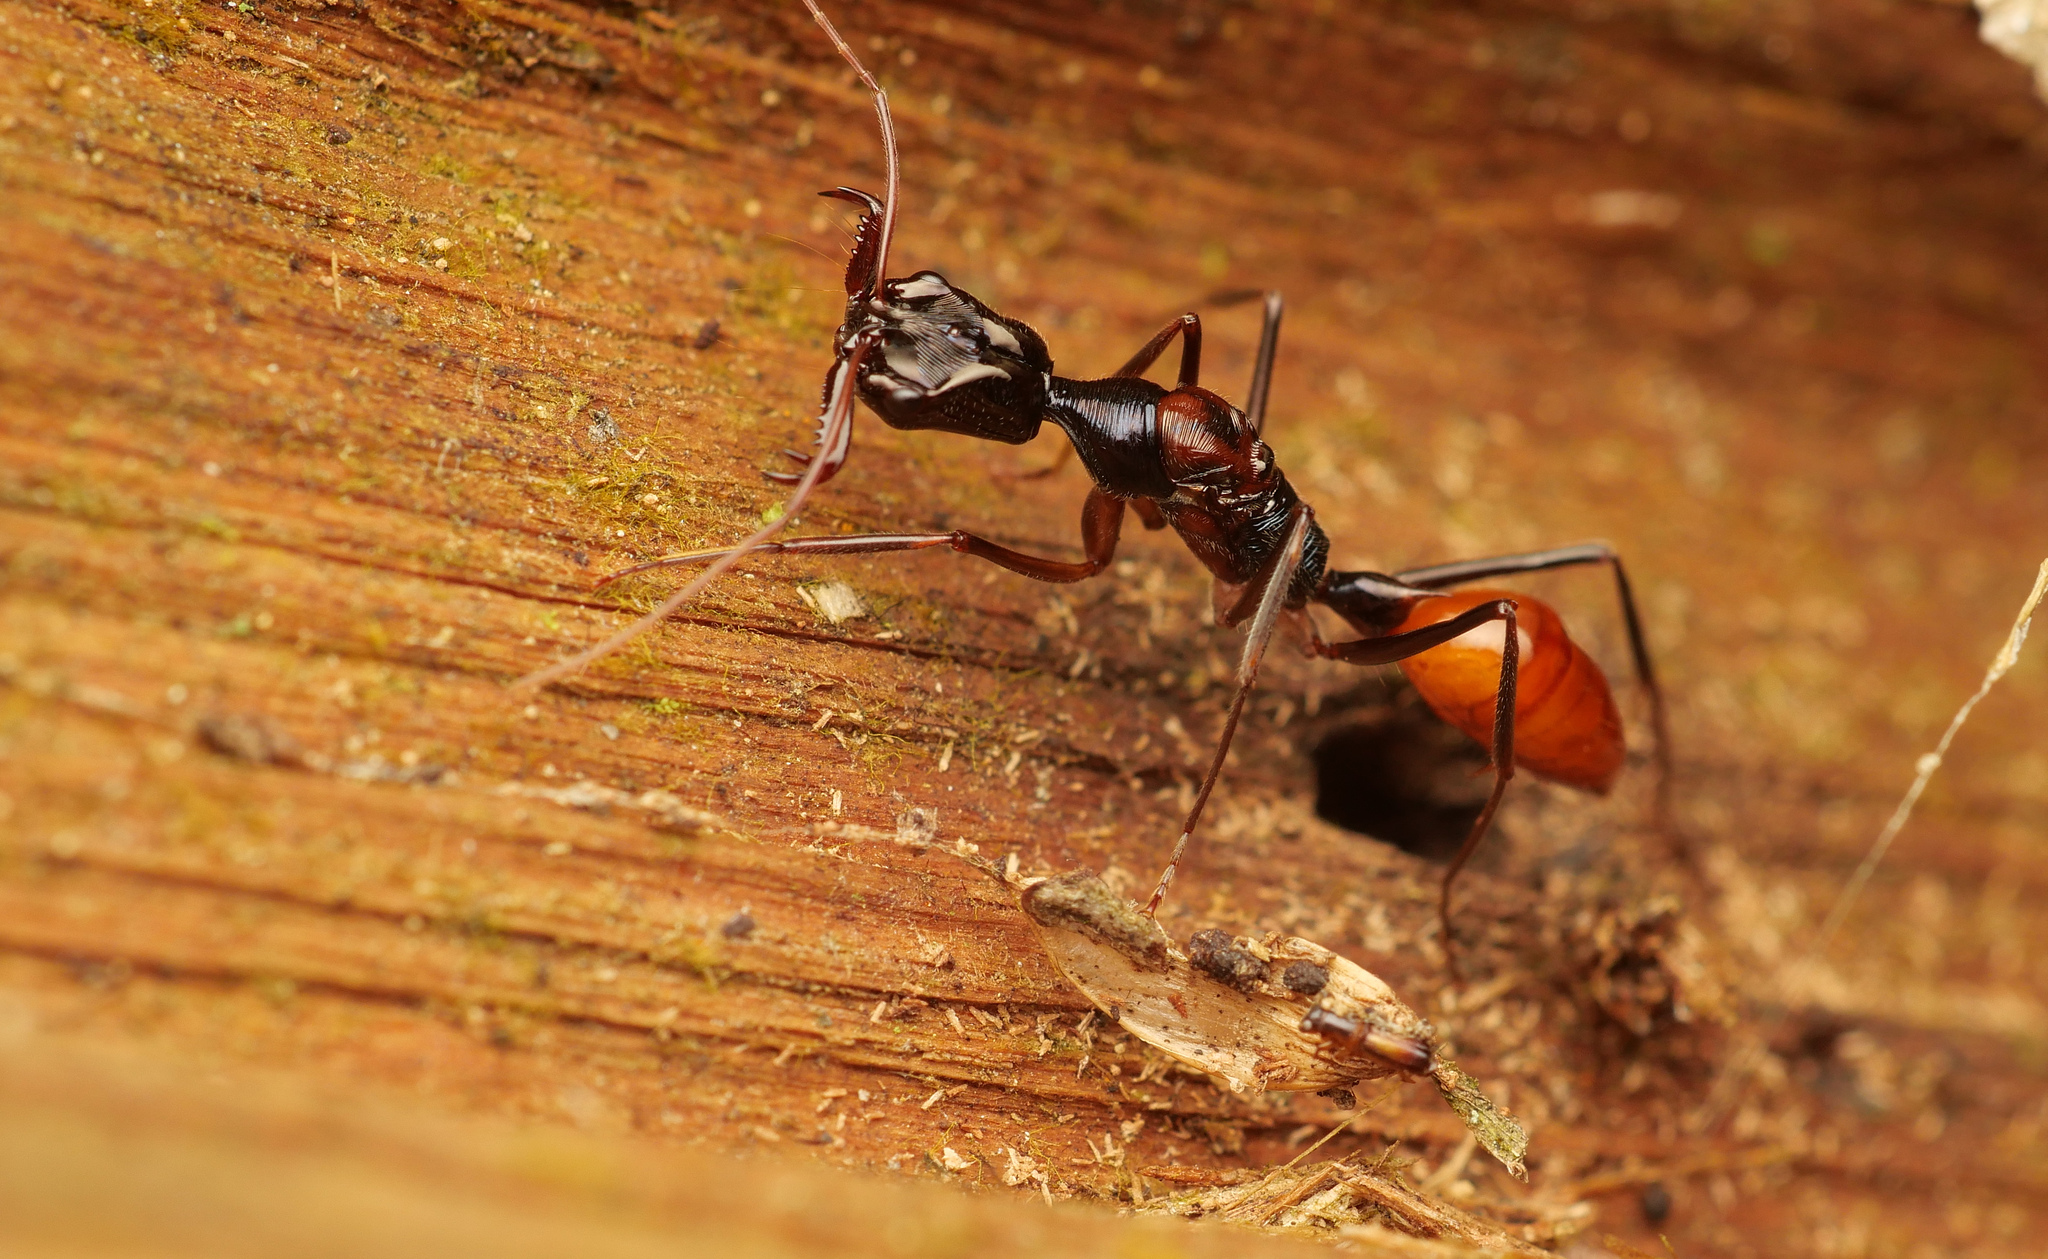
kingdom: Animalia
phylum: Arthropoda
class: Insecta
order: Hymenoptera
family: Formicidae
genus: Odontomachus
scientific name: Odontomachus tyrannicus
